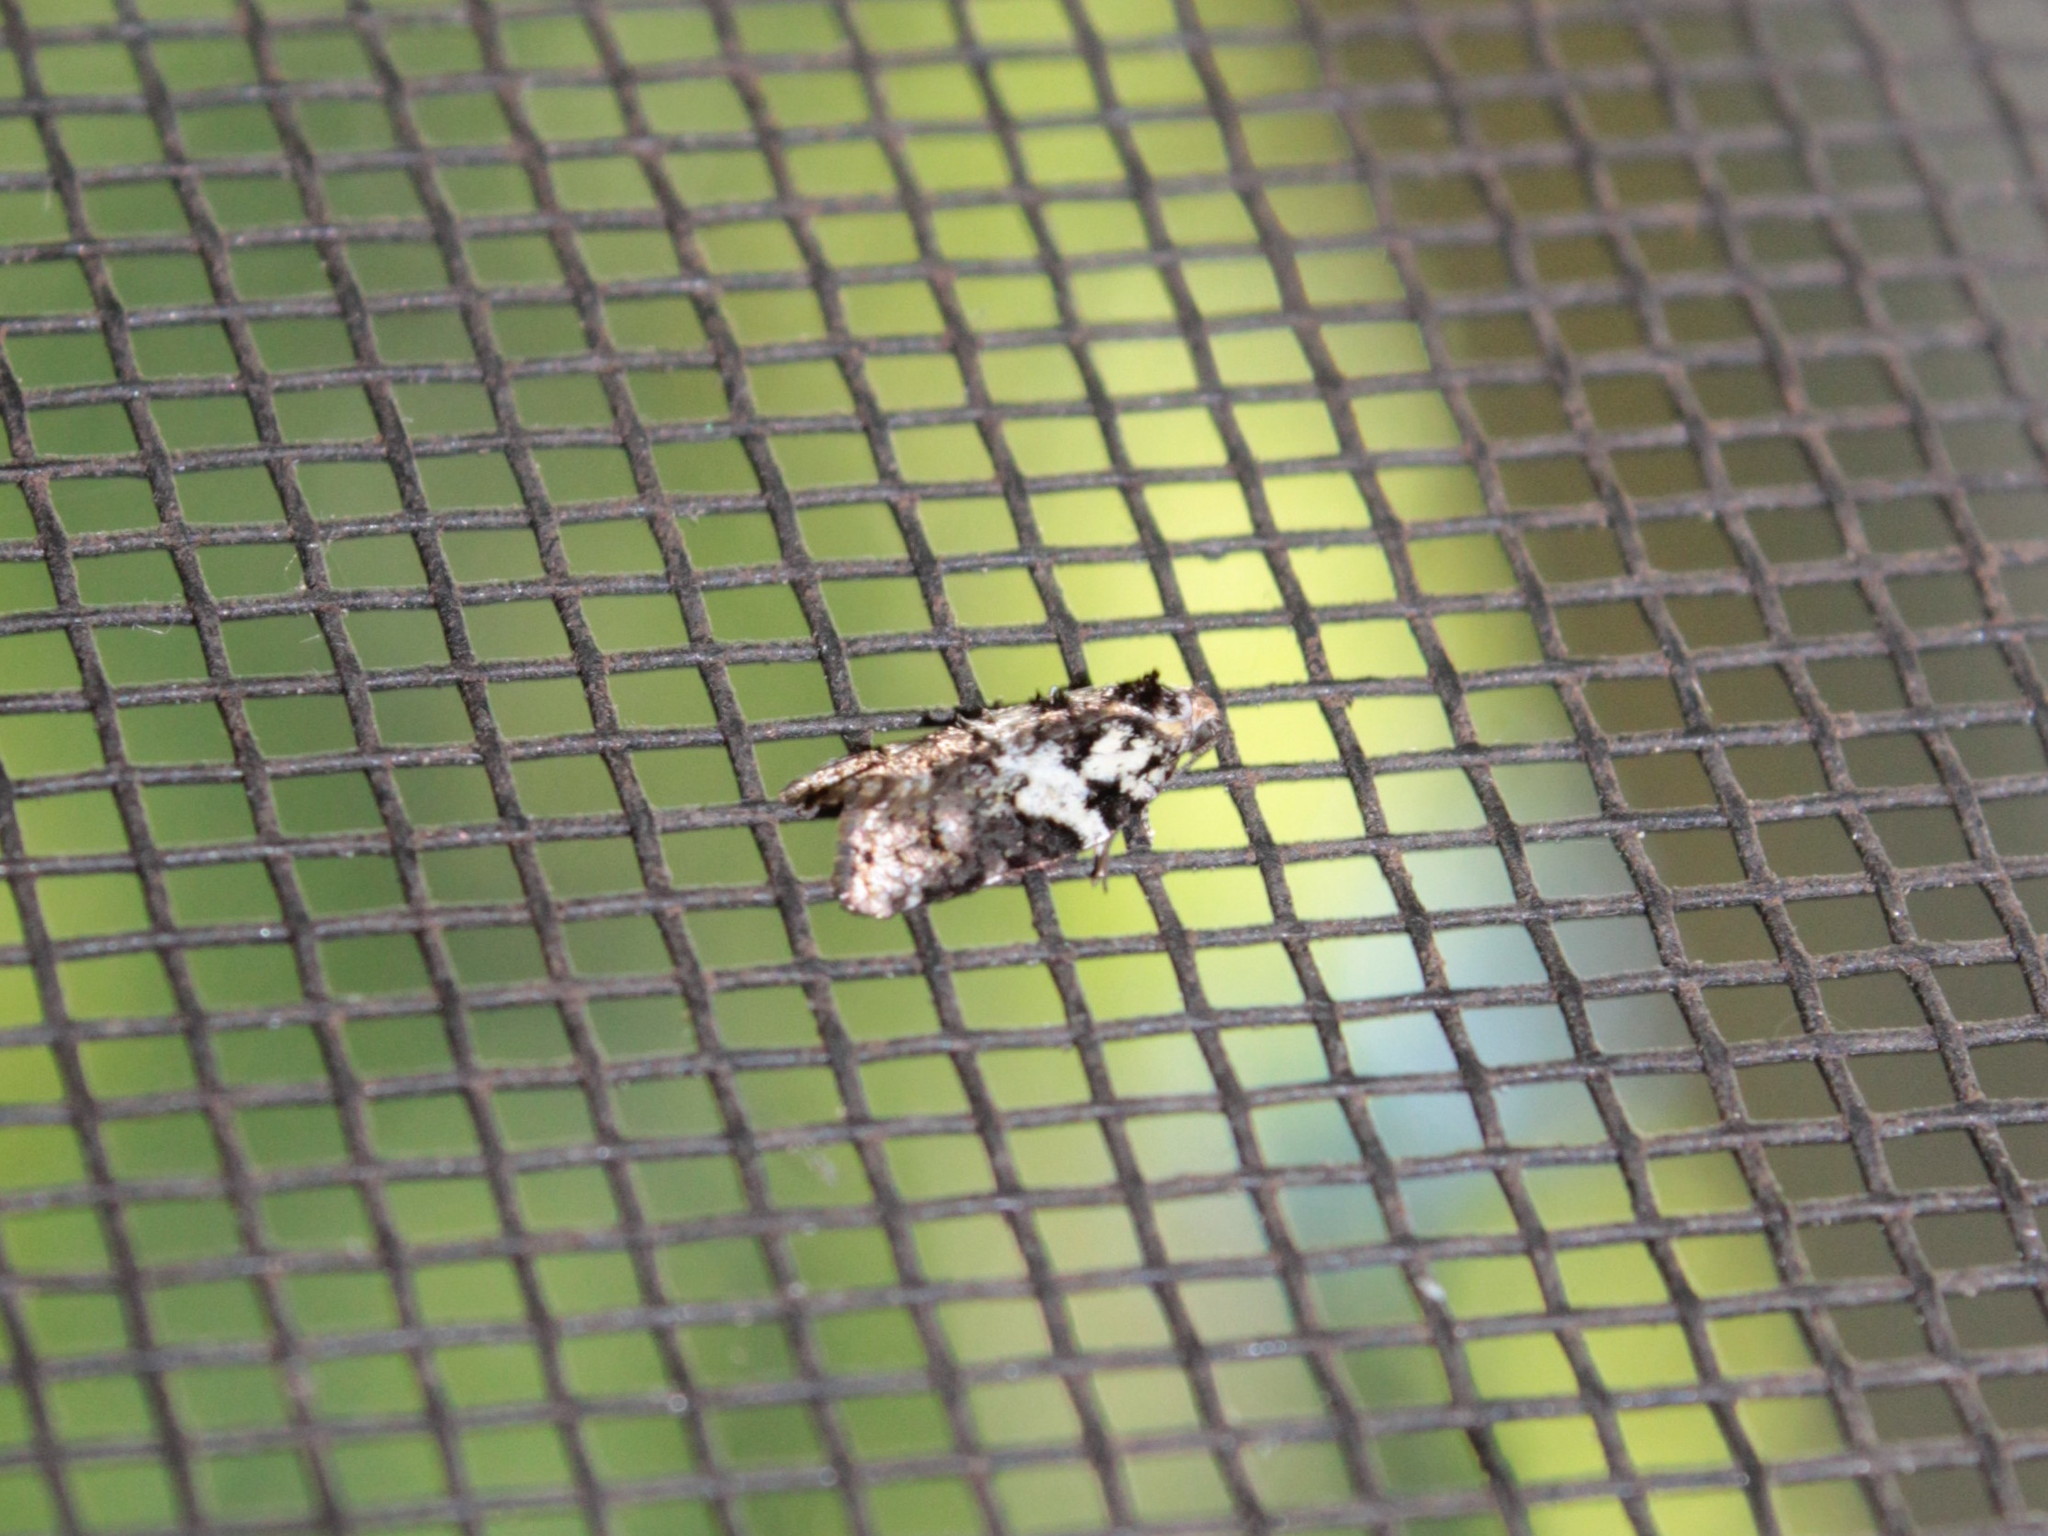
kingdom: Animalia
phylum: Arthropoda
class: Insecta
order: Lepidoptera
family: Tortricidae
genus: Acleris
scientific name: Acleris variana
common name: Eastern black-headed budworm moth
